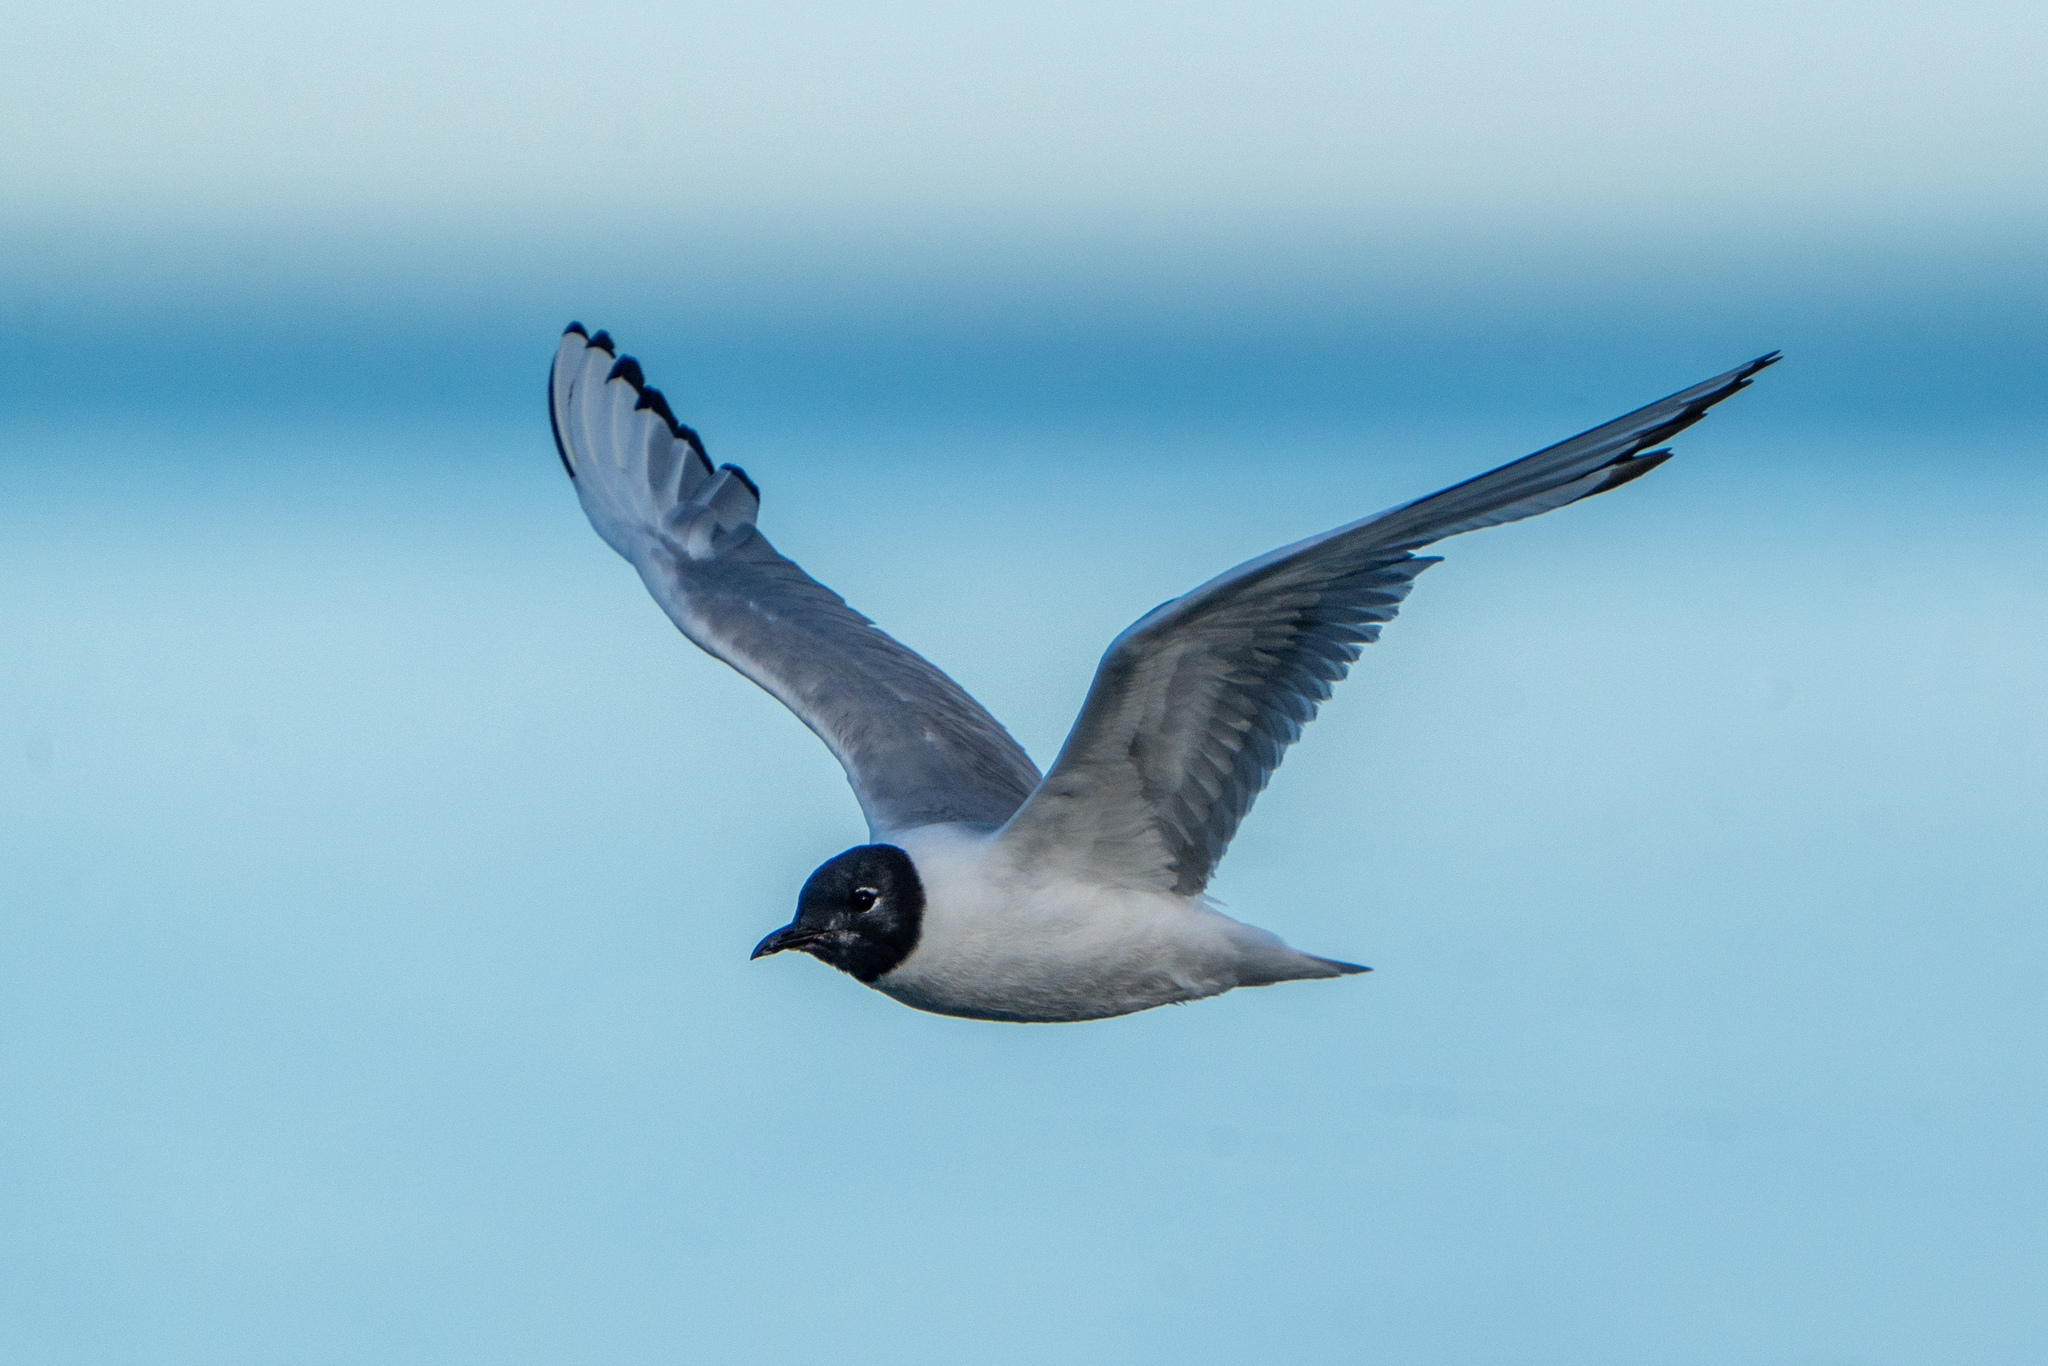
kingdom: Animalia
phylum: Chordata
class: Aves
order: Charadriiformes
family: Laridae
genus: Chroicocephalus
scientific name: Chroicocephalus philadelphia
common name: Bonaparte's gull
